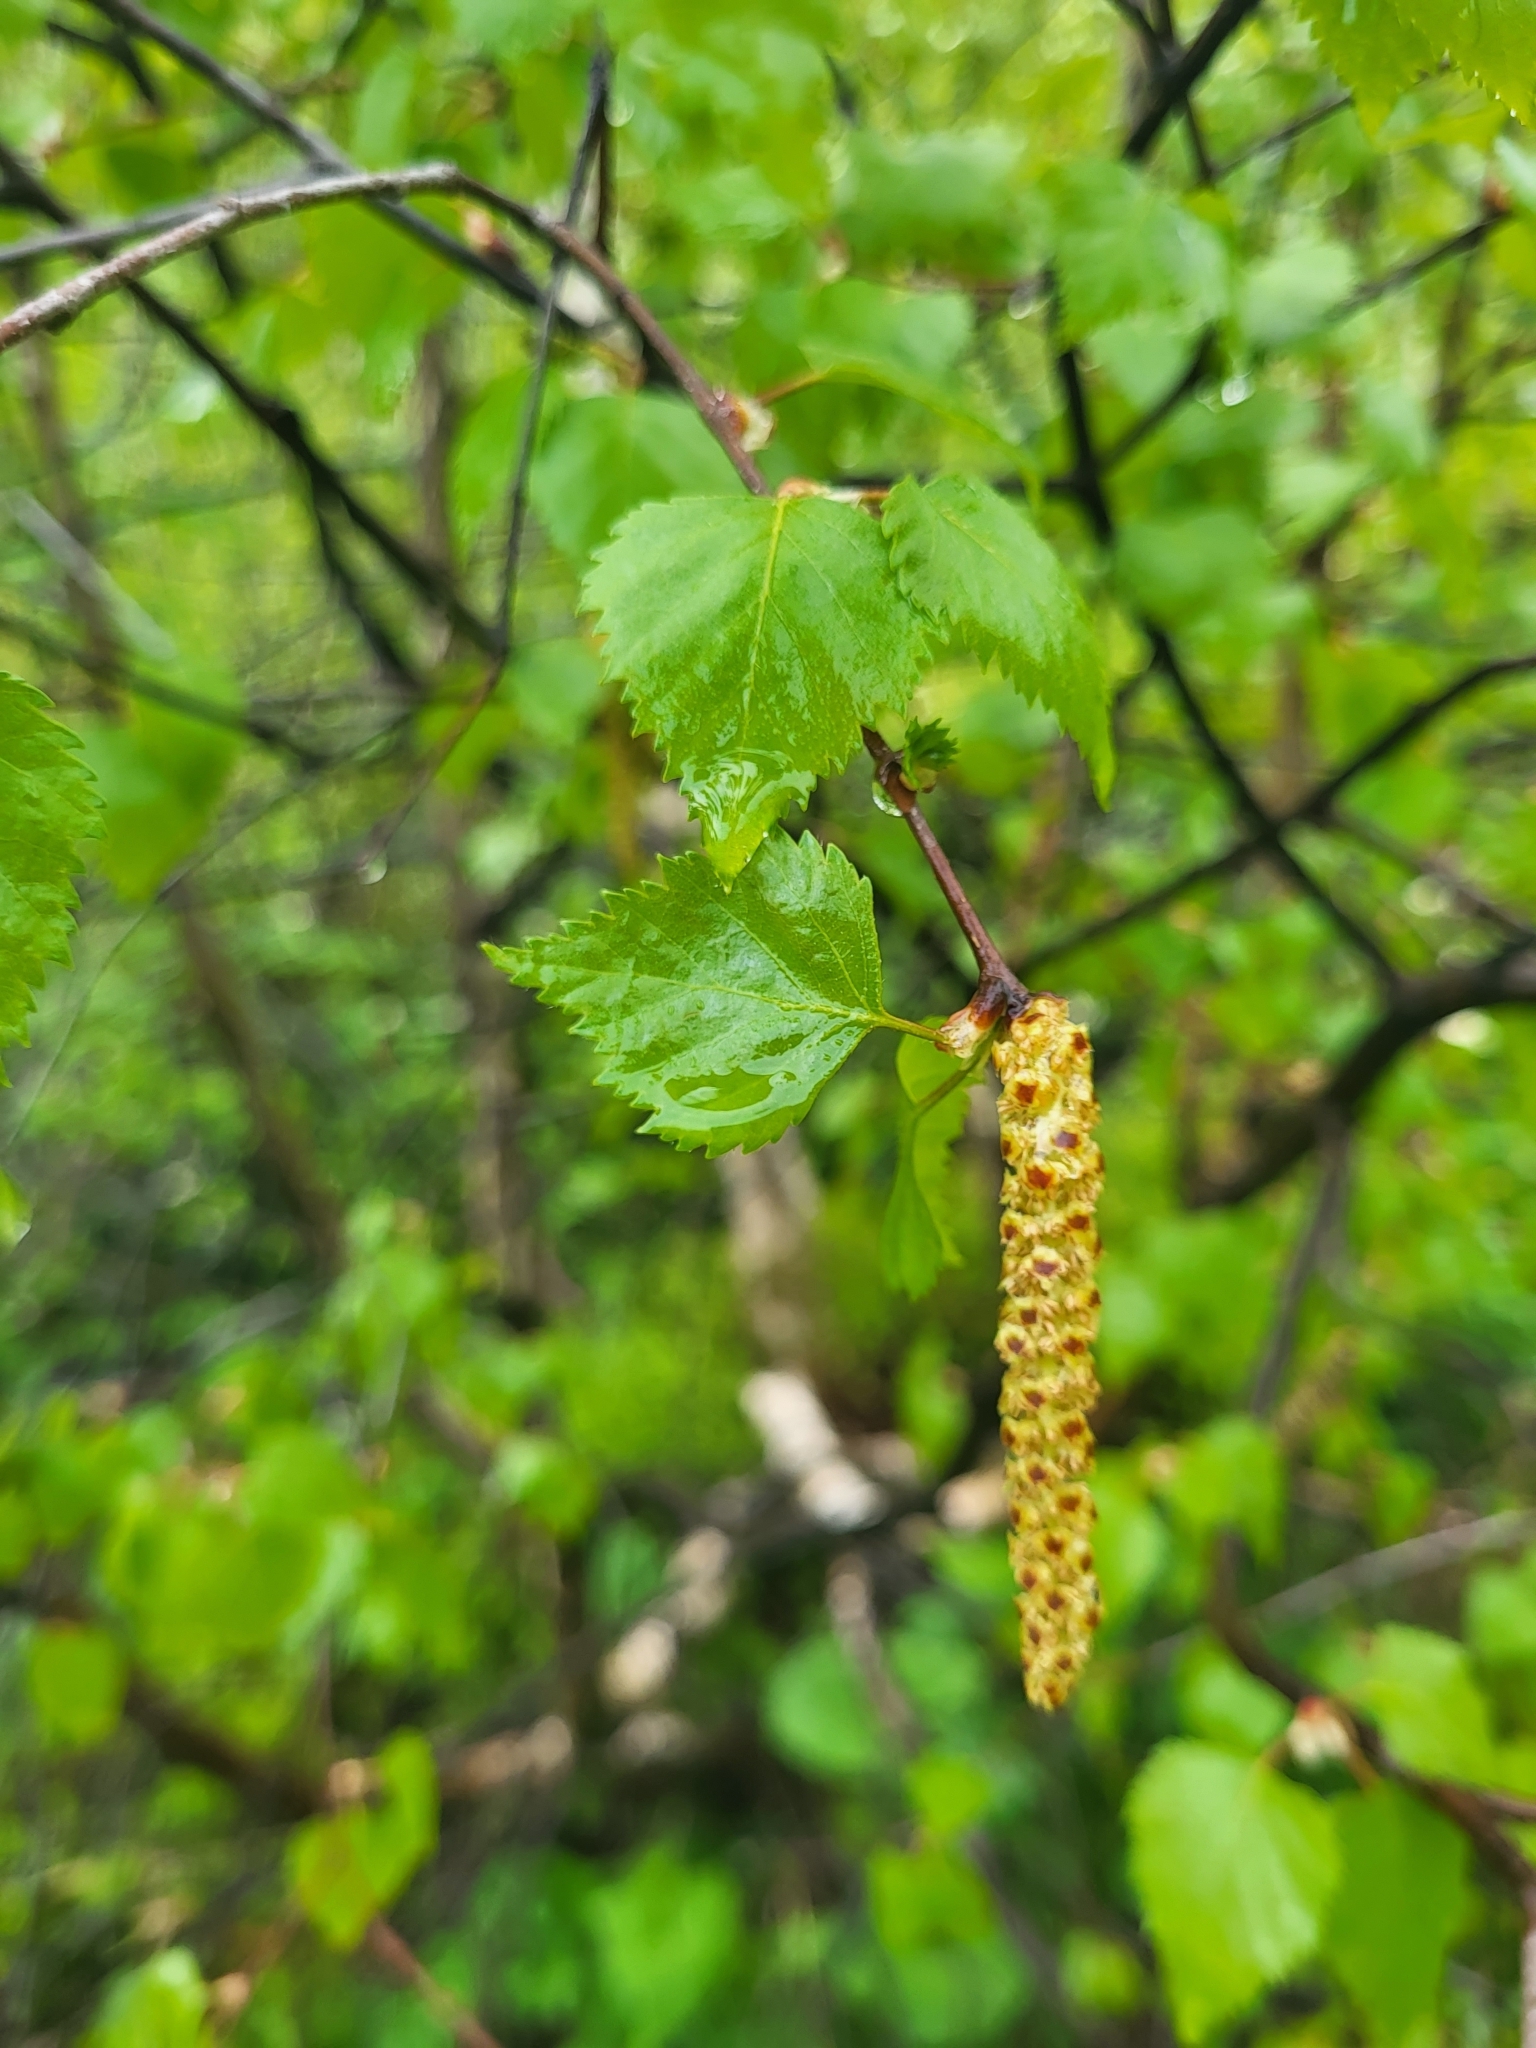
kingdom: Plantae
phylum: Tracheophyta
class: Magnoliopsida
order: Fagales
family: Betulaceae
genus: Betula
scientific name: Betula pendula
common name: Silver birch
